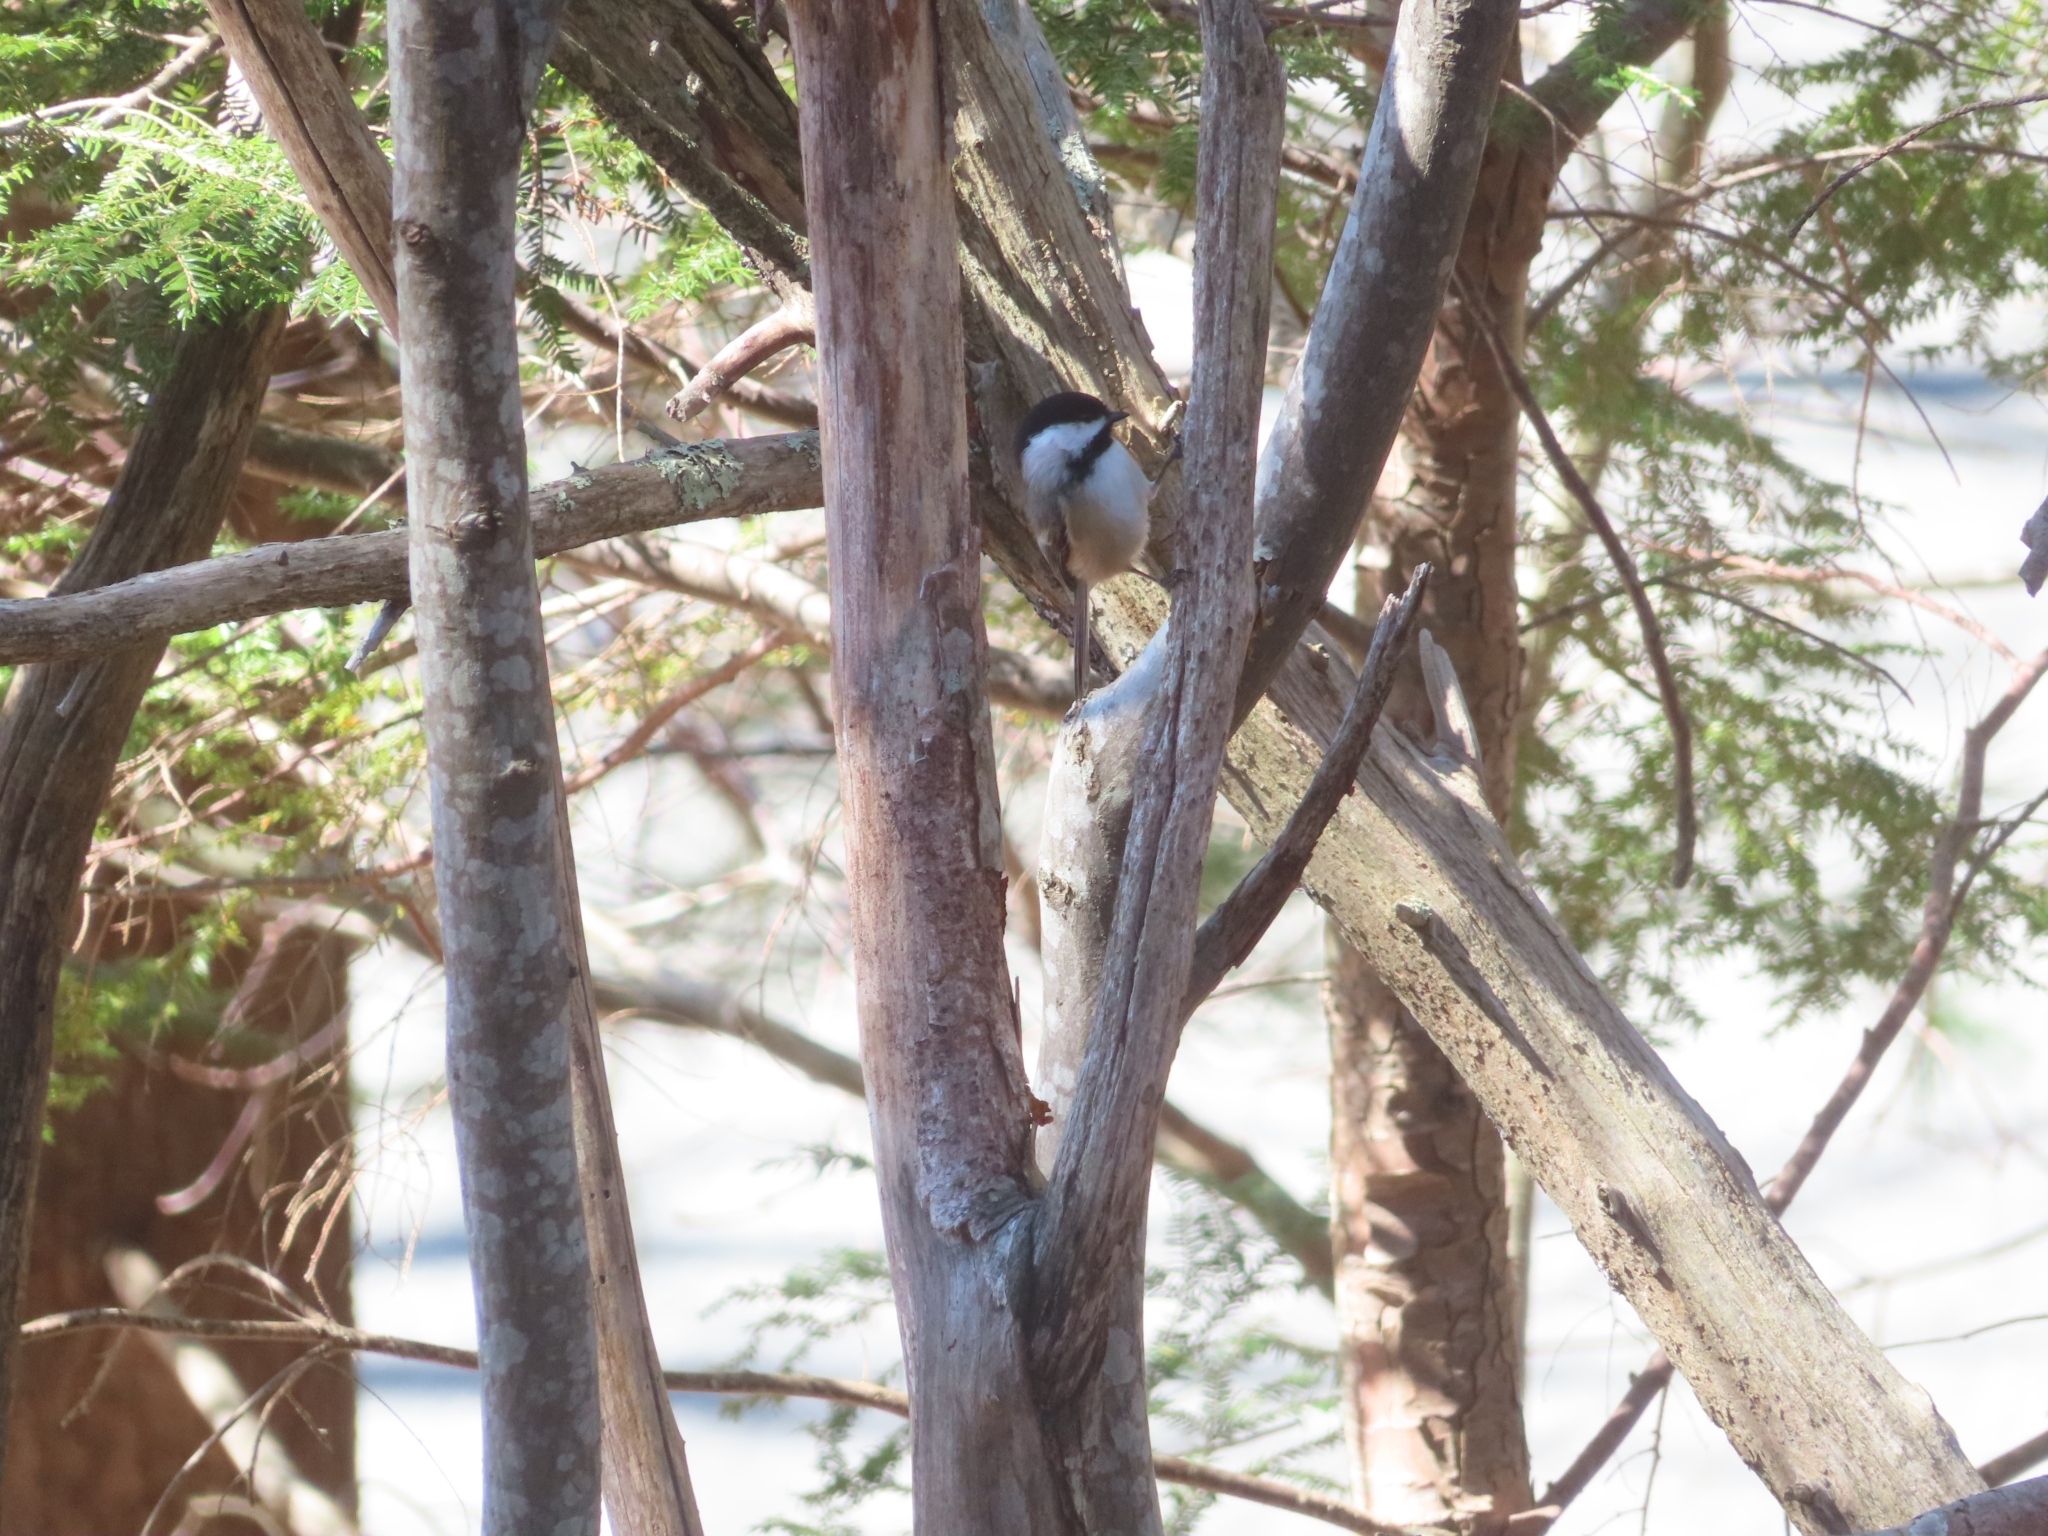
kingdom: Animalia
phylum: Chordata
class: Aves
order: Passeriformes
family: Paridae
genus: Poecile
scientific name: Poecile atricapillus
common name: Black-capped chickadee
